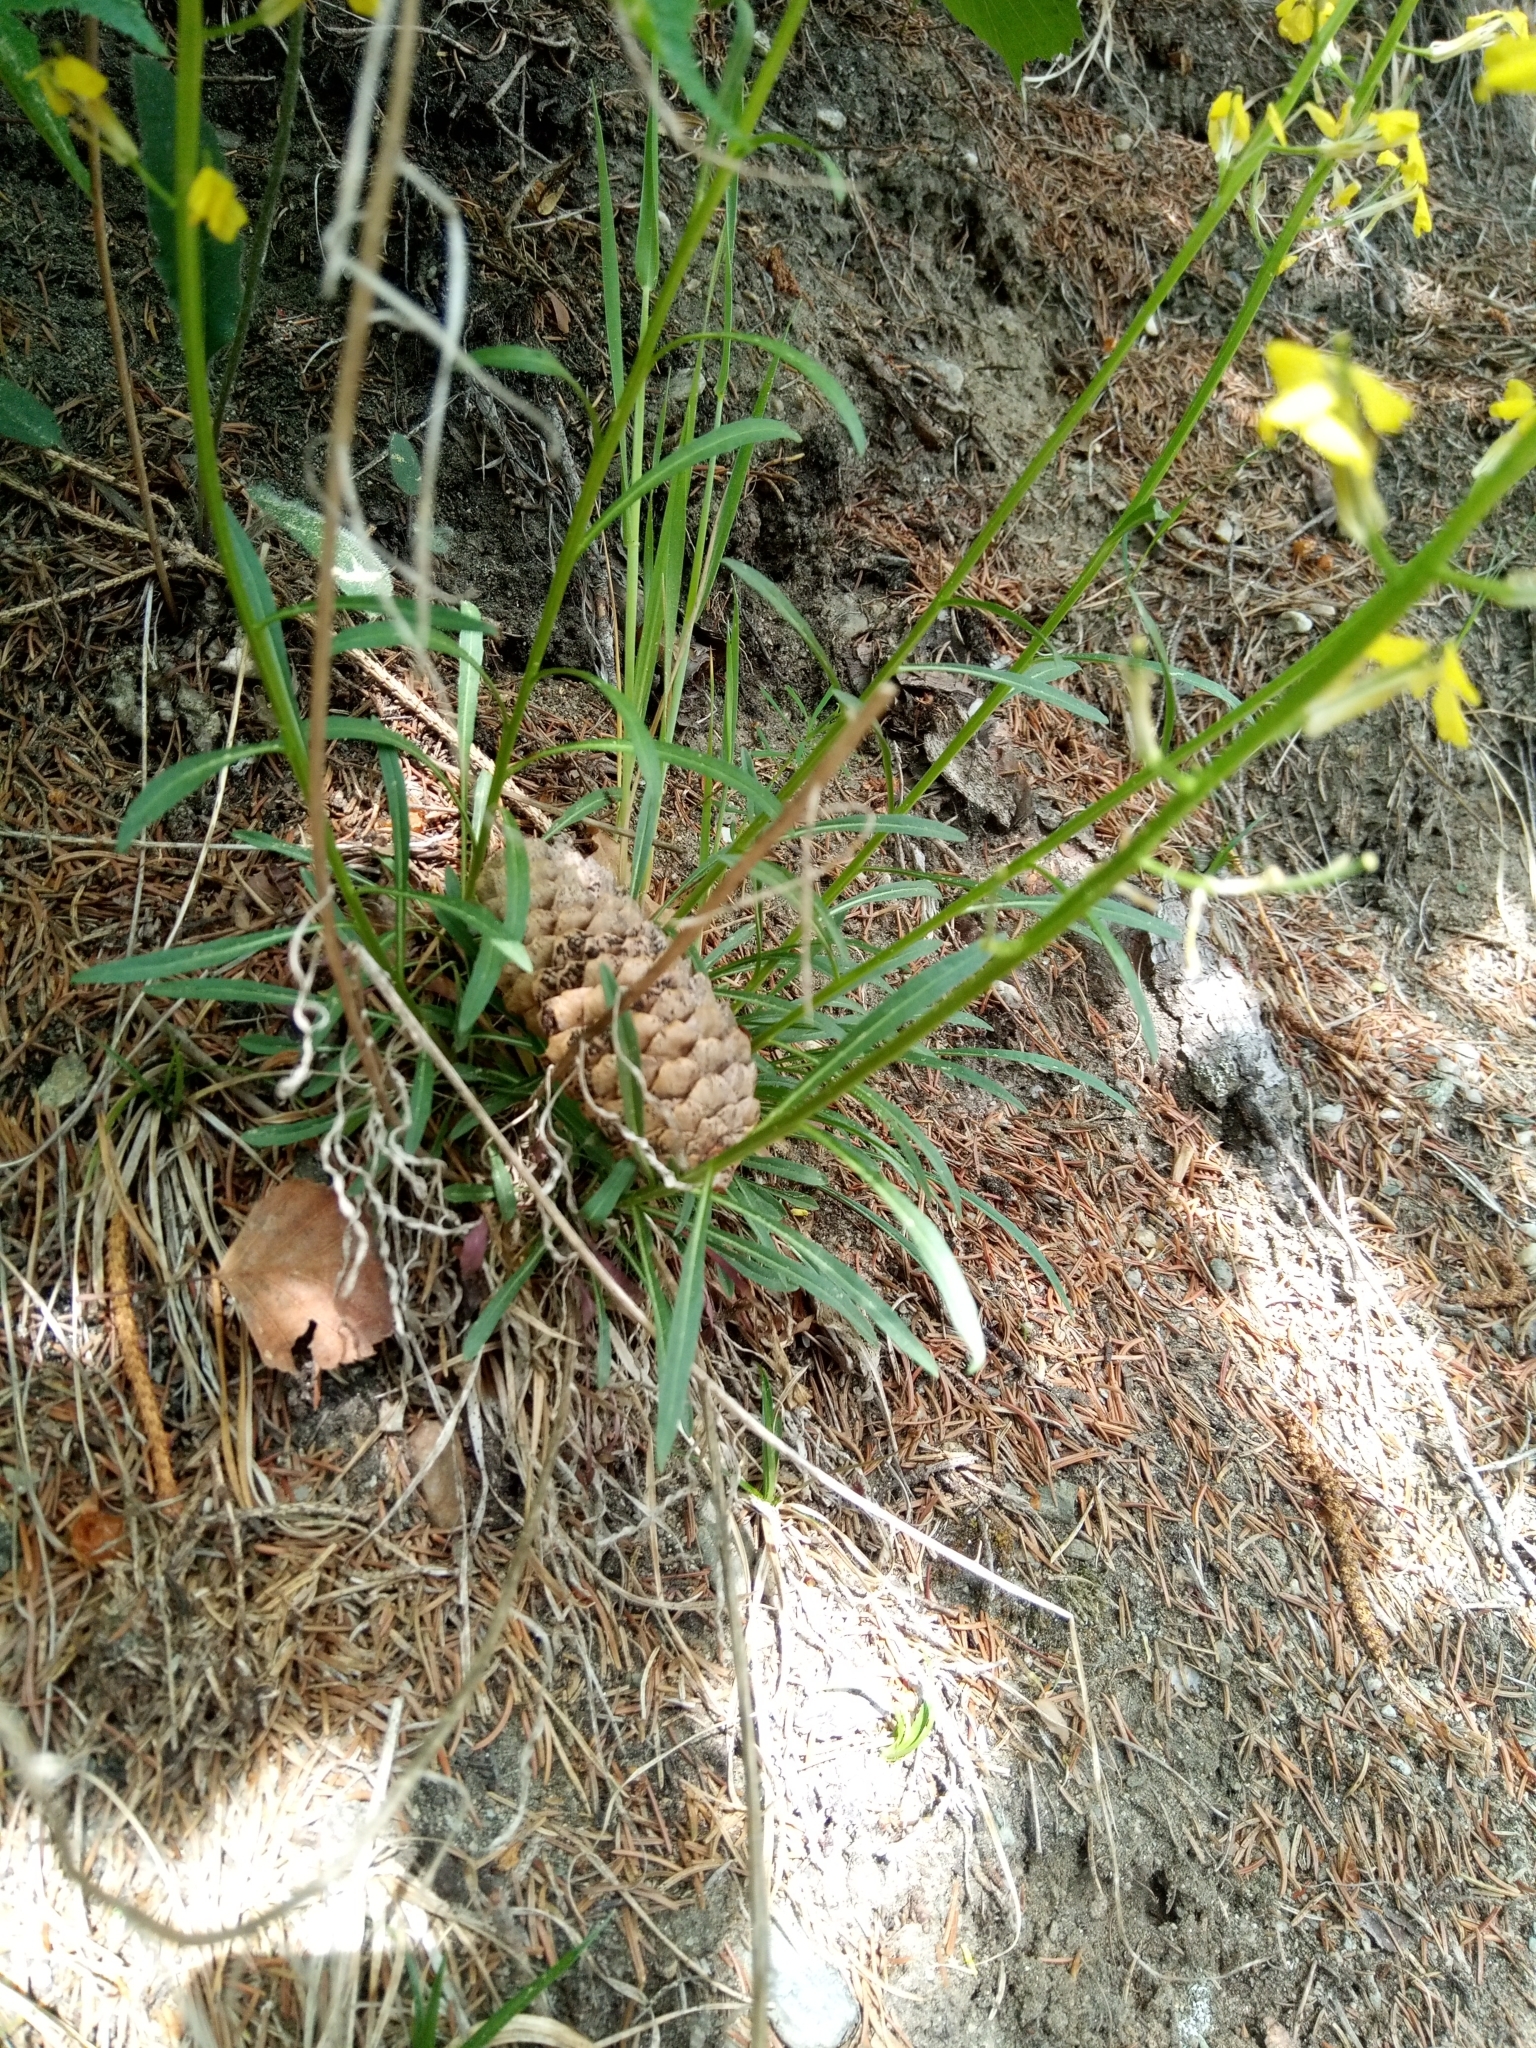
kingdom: Plantae
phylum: Tracheophyta
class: Magnoliopsida
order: Brassicales
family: Brassicaceae
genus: Erysimum
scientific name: Erysimum sylvestre
